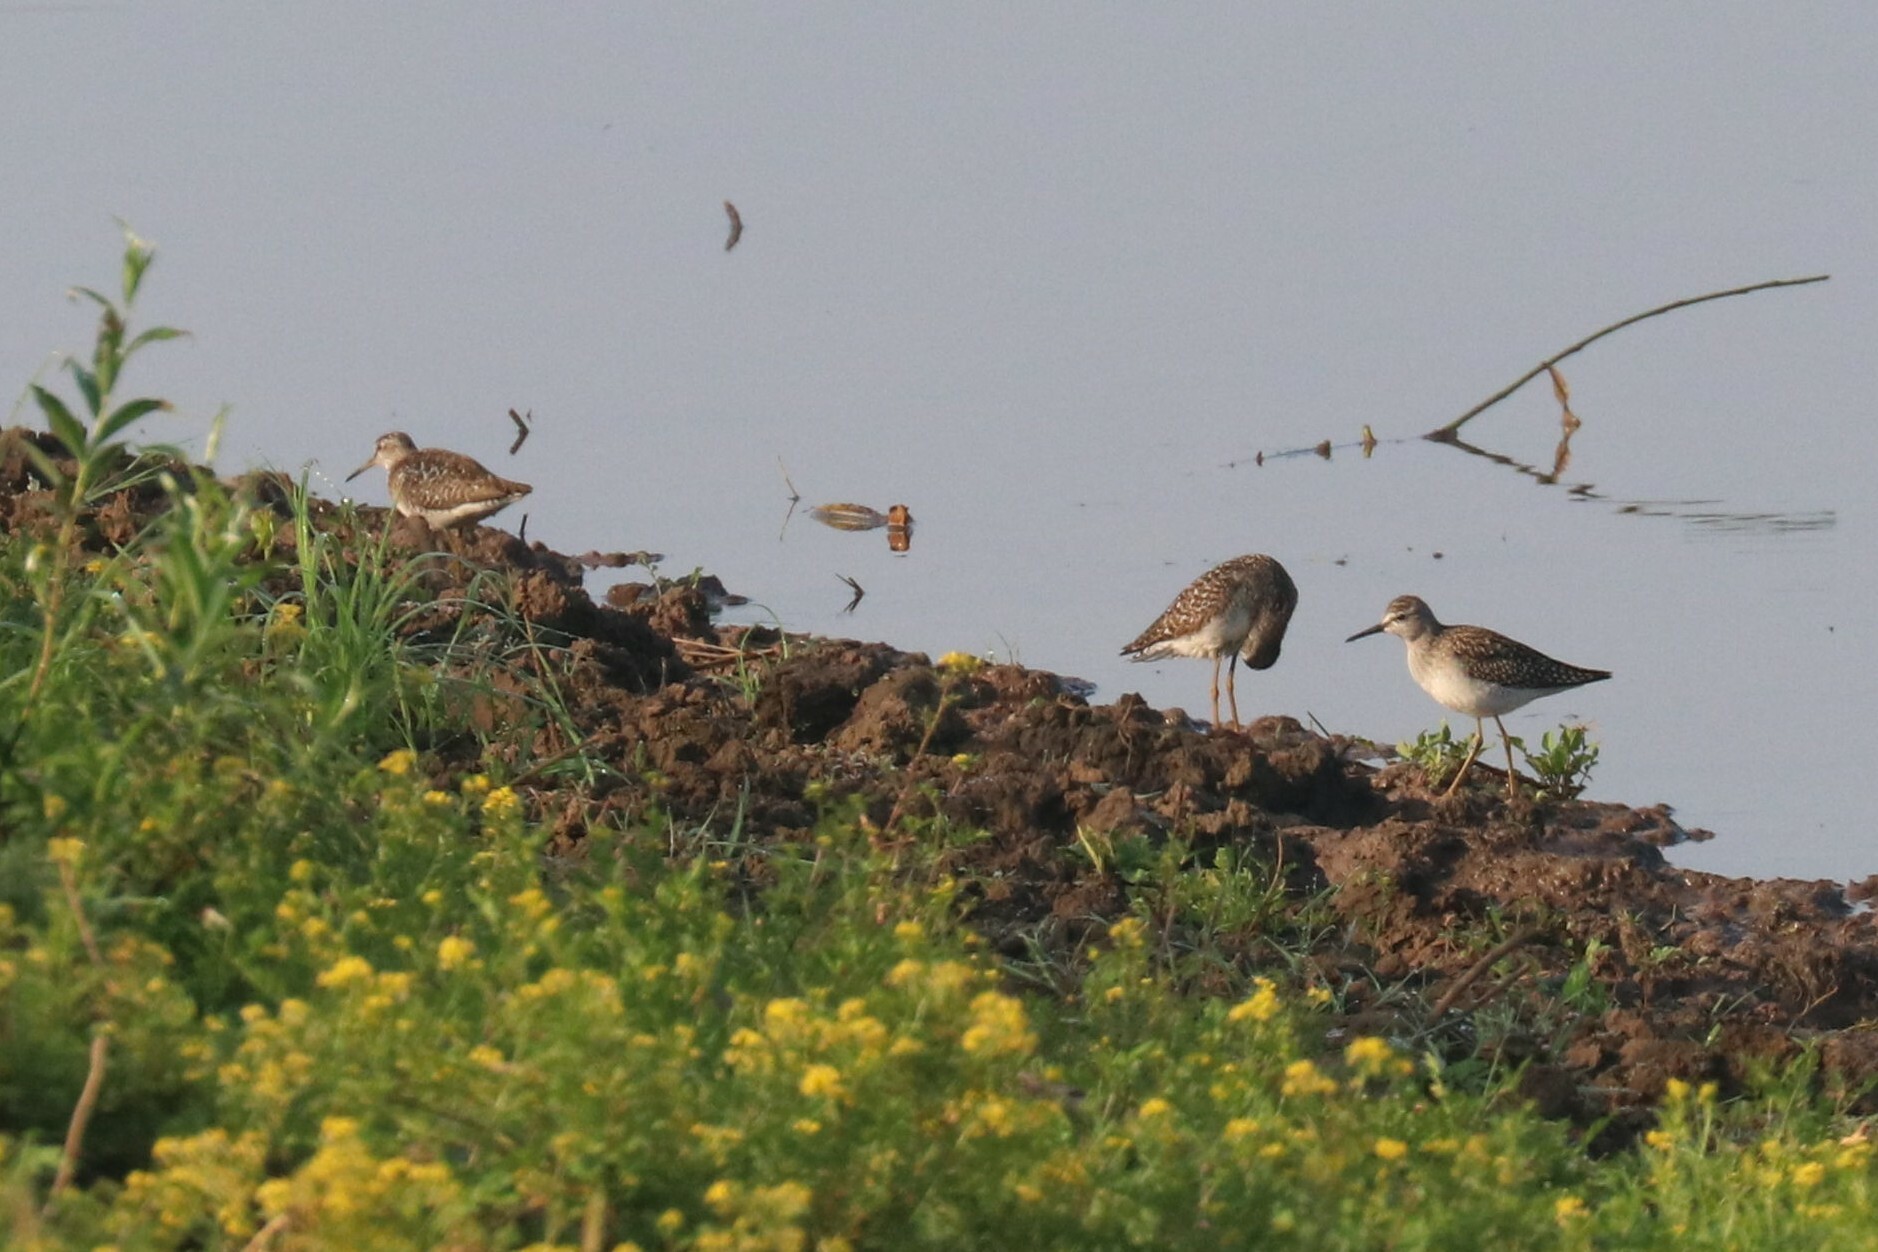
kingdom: Animalia
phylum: Chordata
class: Aves
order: Charadriiformes
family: Scolopacidae
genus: Tringa
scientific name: Tringa glareola
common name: Wood sandpiper
